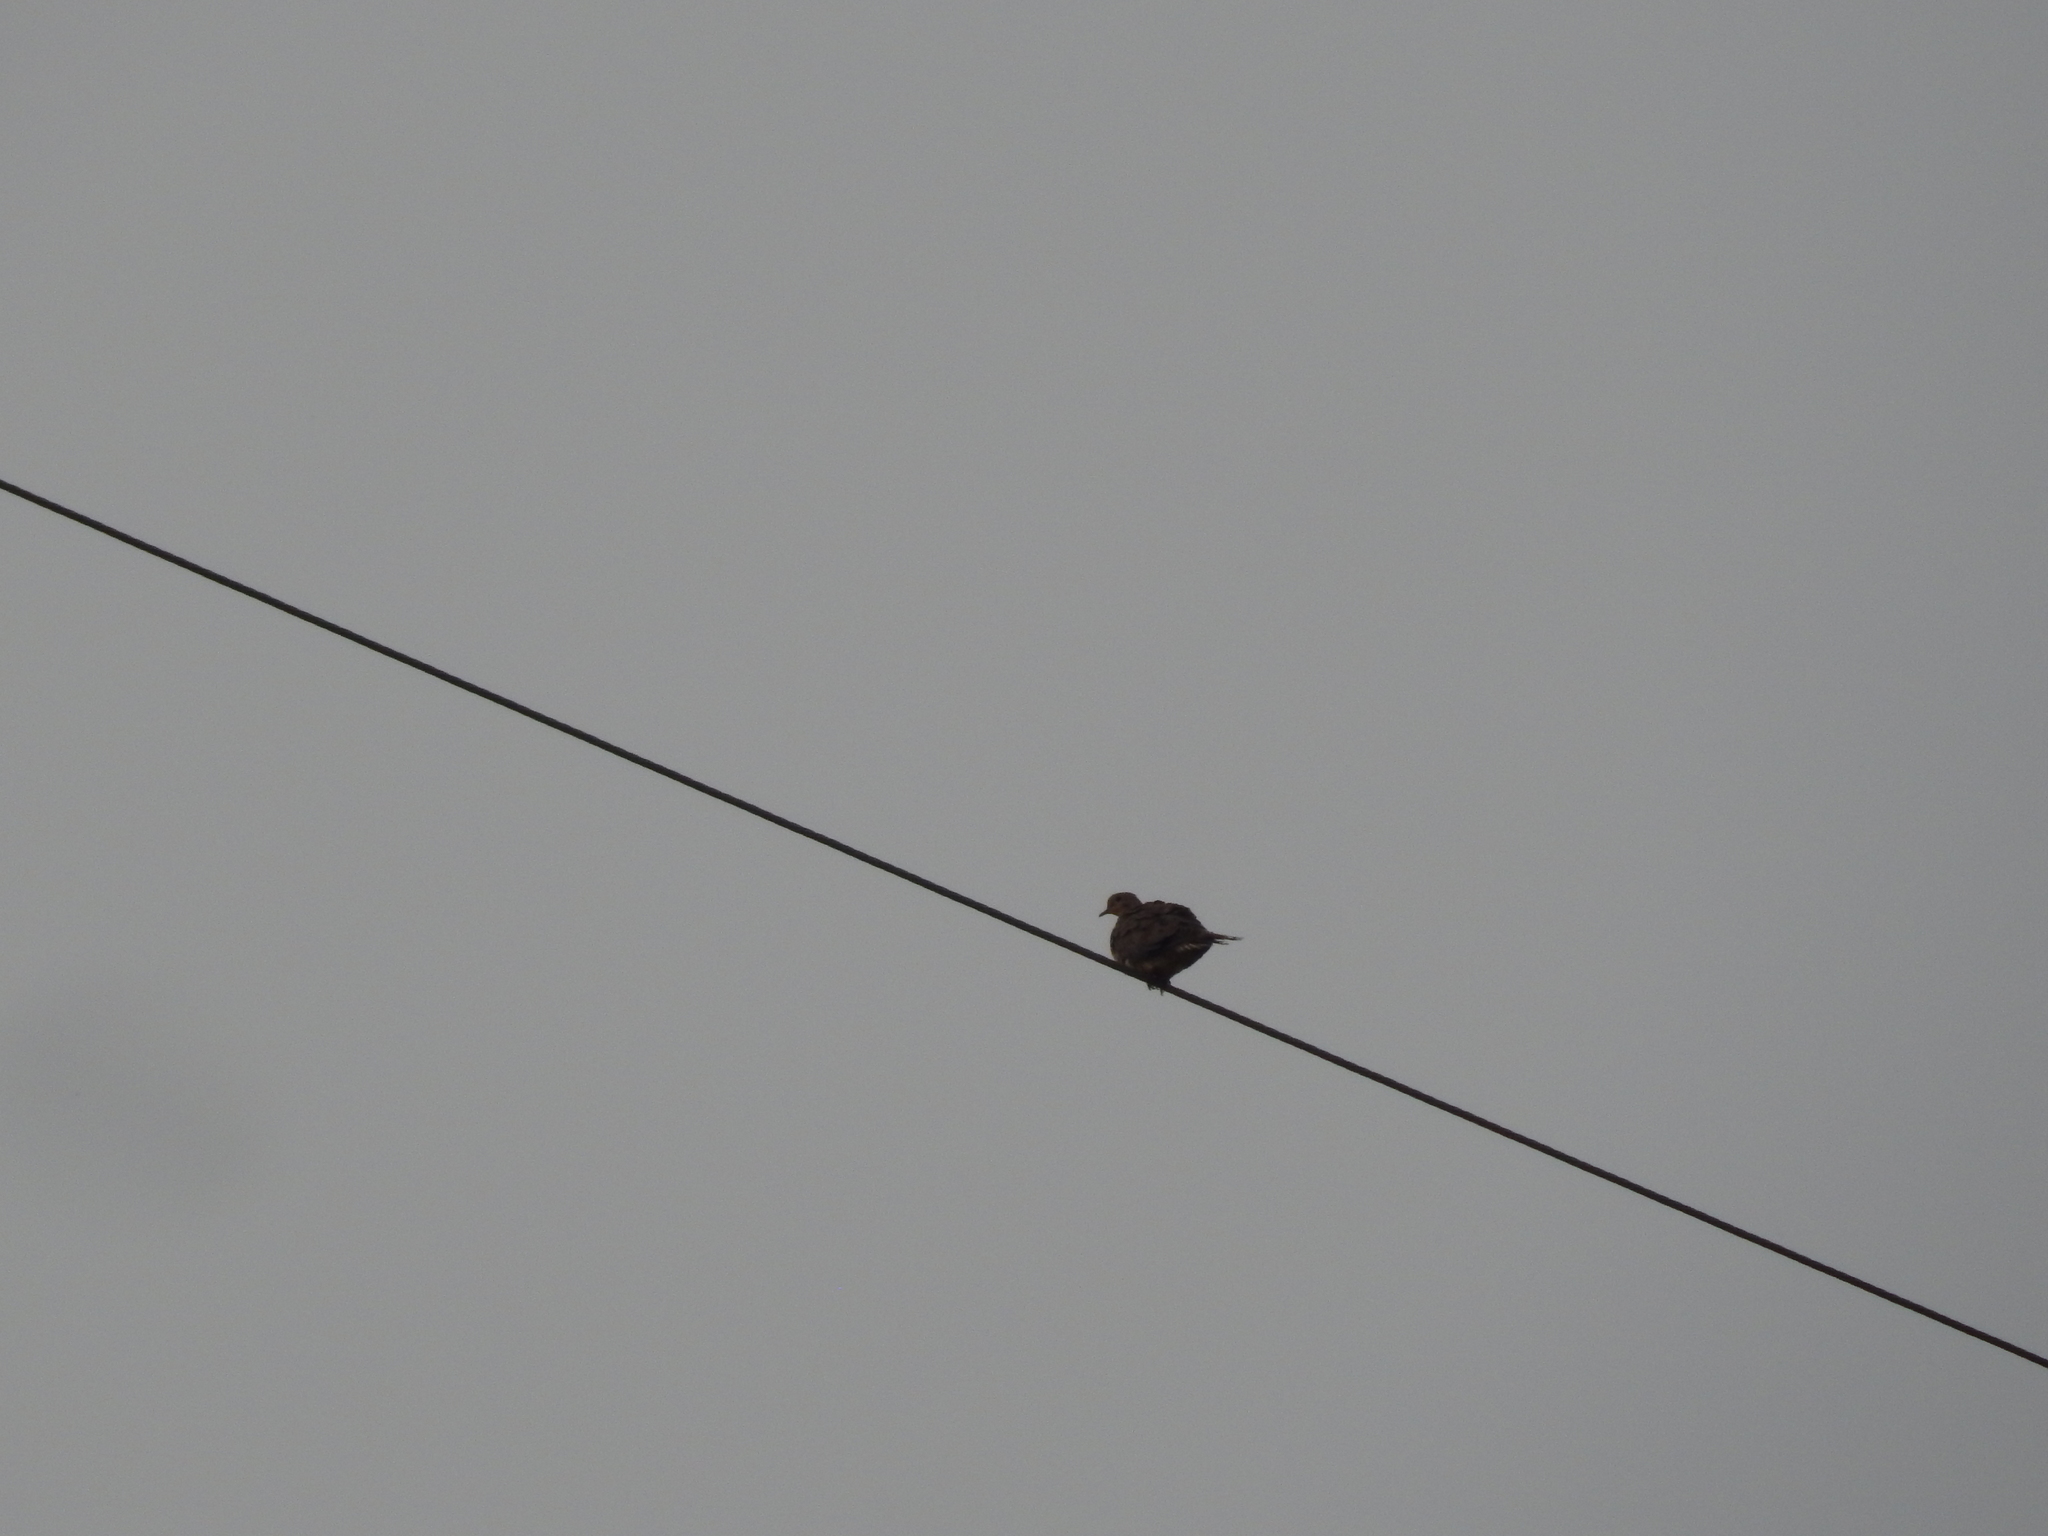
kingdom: Animalia
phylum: Chordata
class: Aves
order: Columbiformes
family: Columbidae
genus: Zenaida
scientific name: Zenaida macroura
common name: Mourning dove
